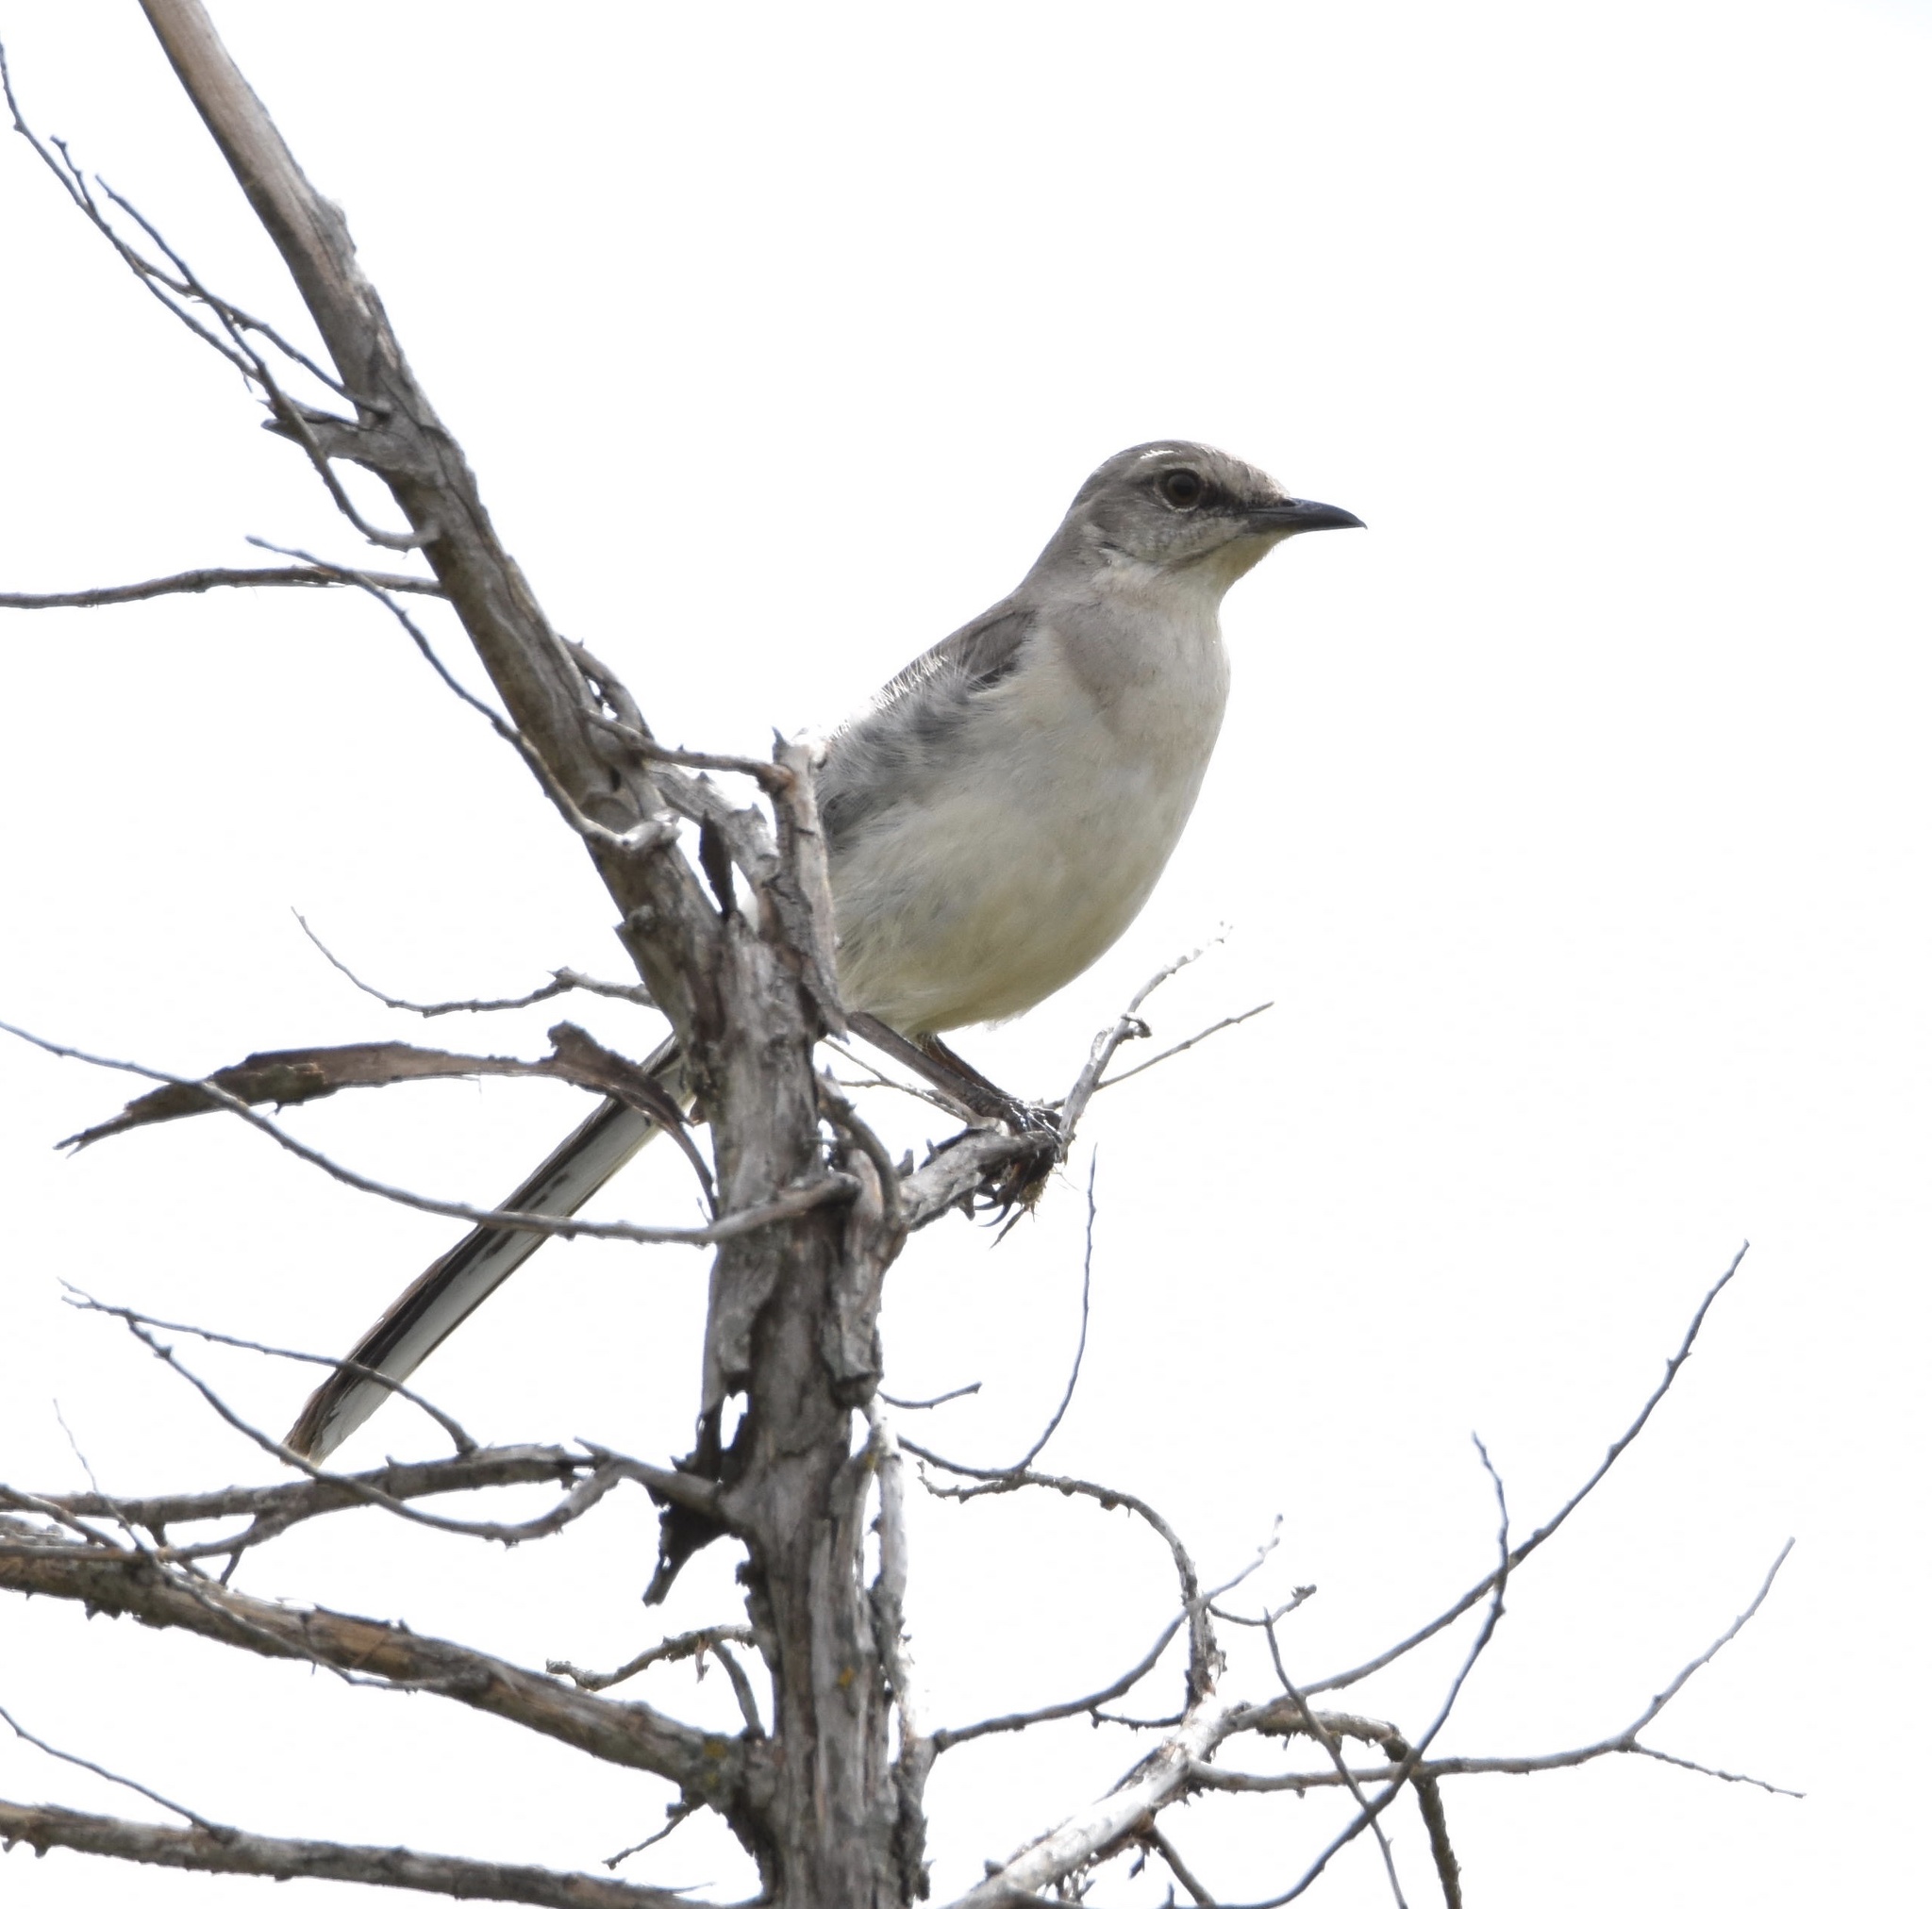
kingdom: Animalia
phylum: Chordata
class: Aves
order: Passeriformes
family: Mimidae
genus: Mimus
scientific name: Mimus polyglottos
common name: Northern mockingbird
